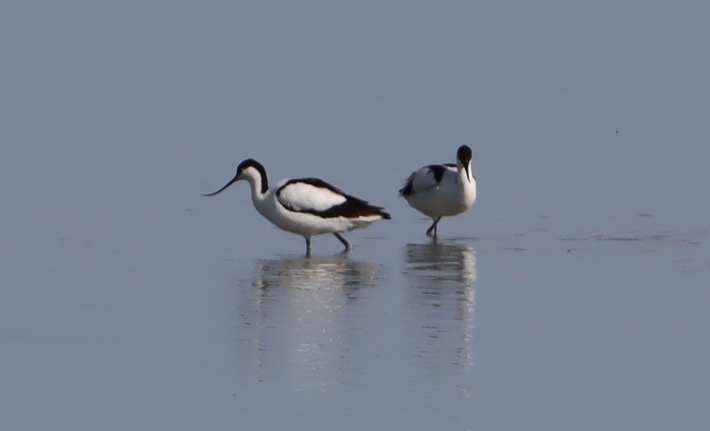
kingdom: Animalia
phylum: Chordata
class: Aves
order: Charadriiformes
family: Recurvirostridae
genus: Recurvirostra
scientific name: Recurvirostra avosetta
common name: Pied avocet
